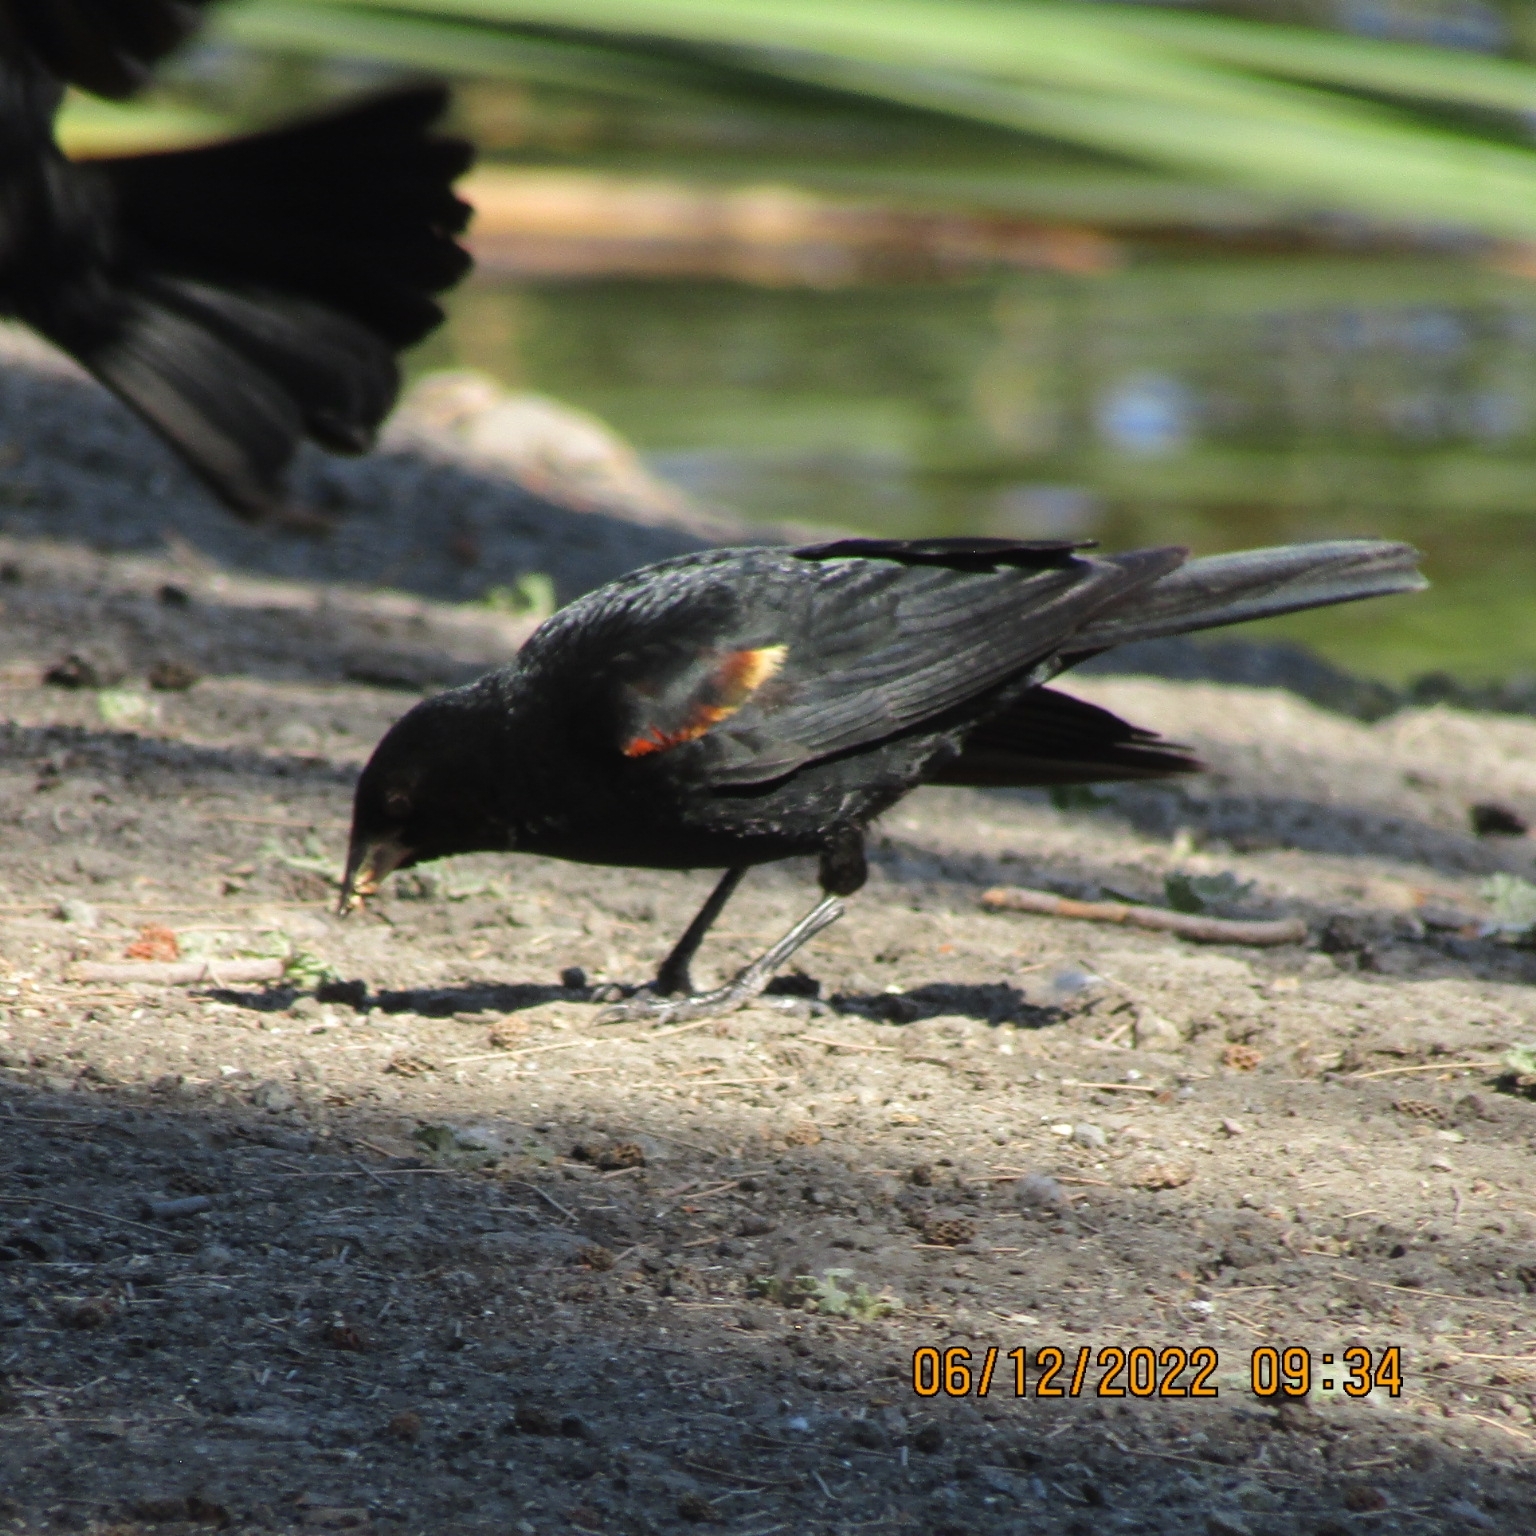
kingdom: Animalia
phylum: Chordata
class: Aves
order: Passeriformes
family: Icteridae
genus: Agelaius
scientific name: Agelaius phoeniceus
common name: Red-winged blackbird
